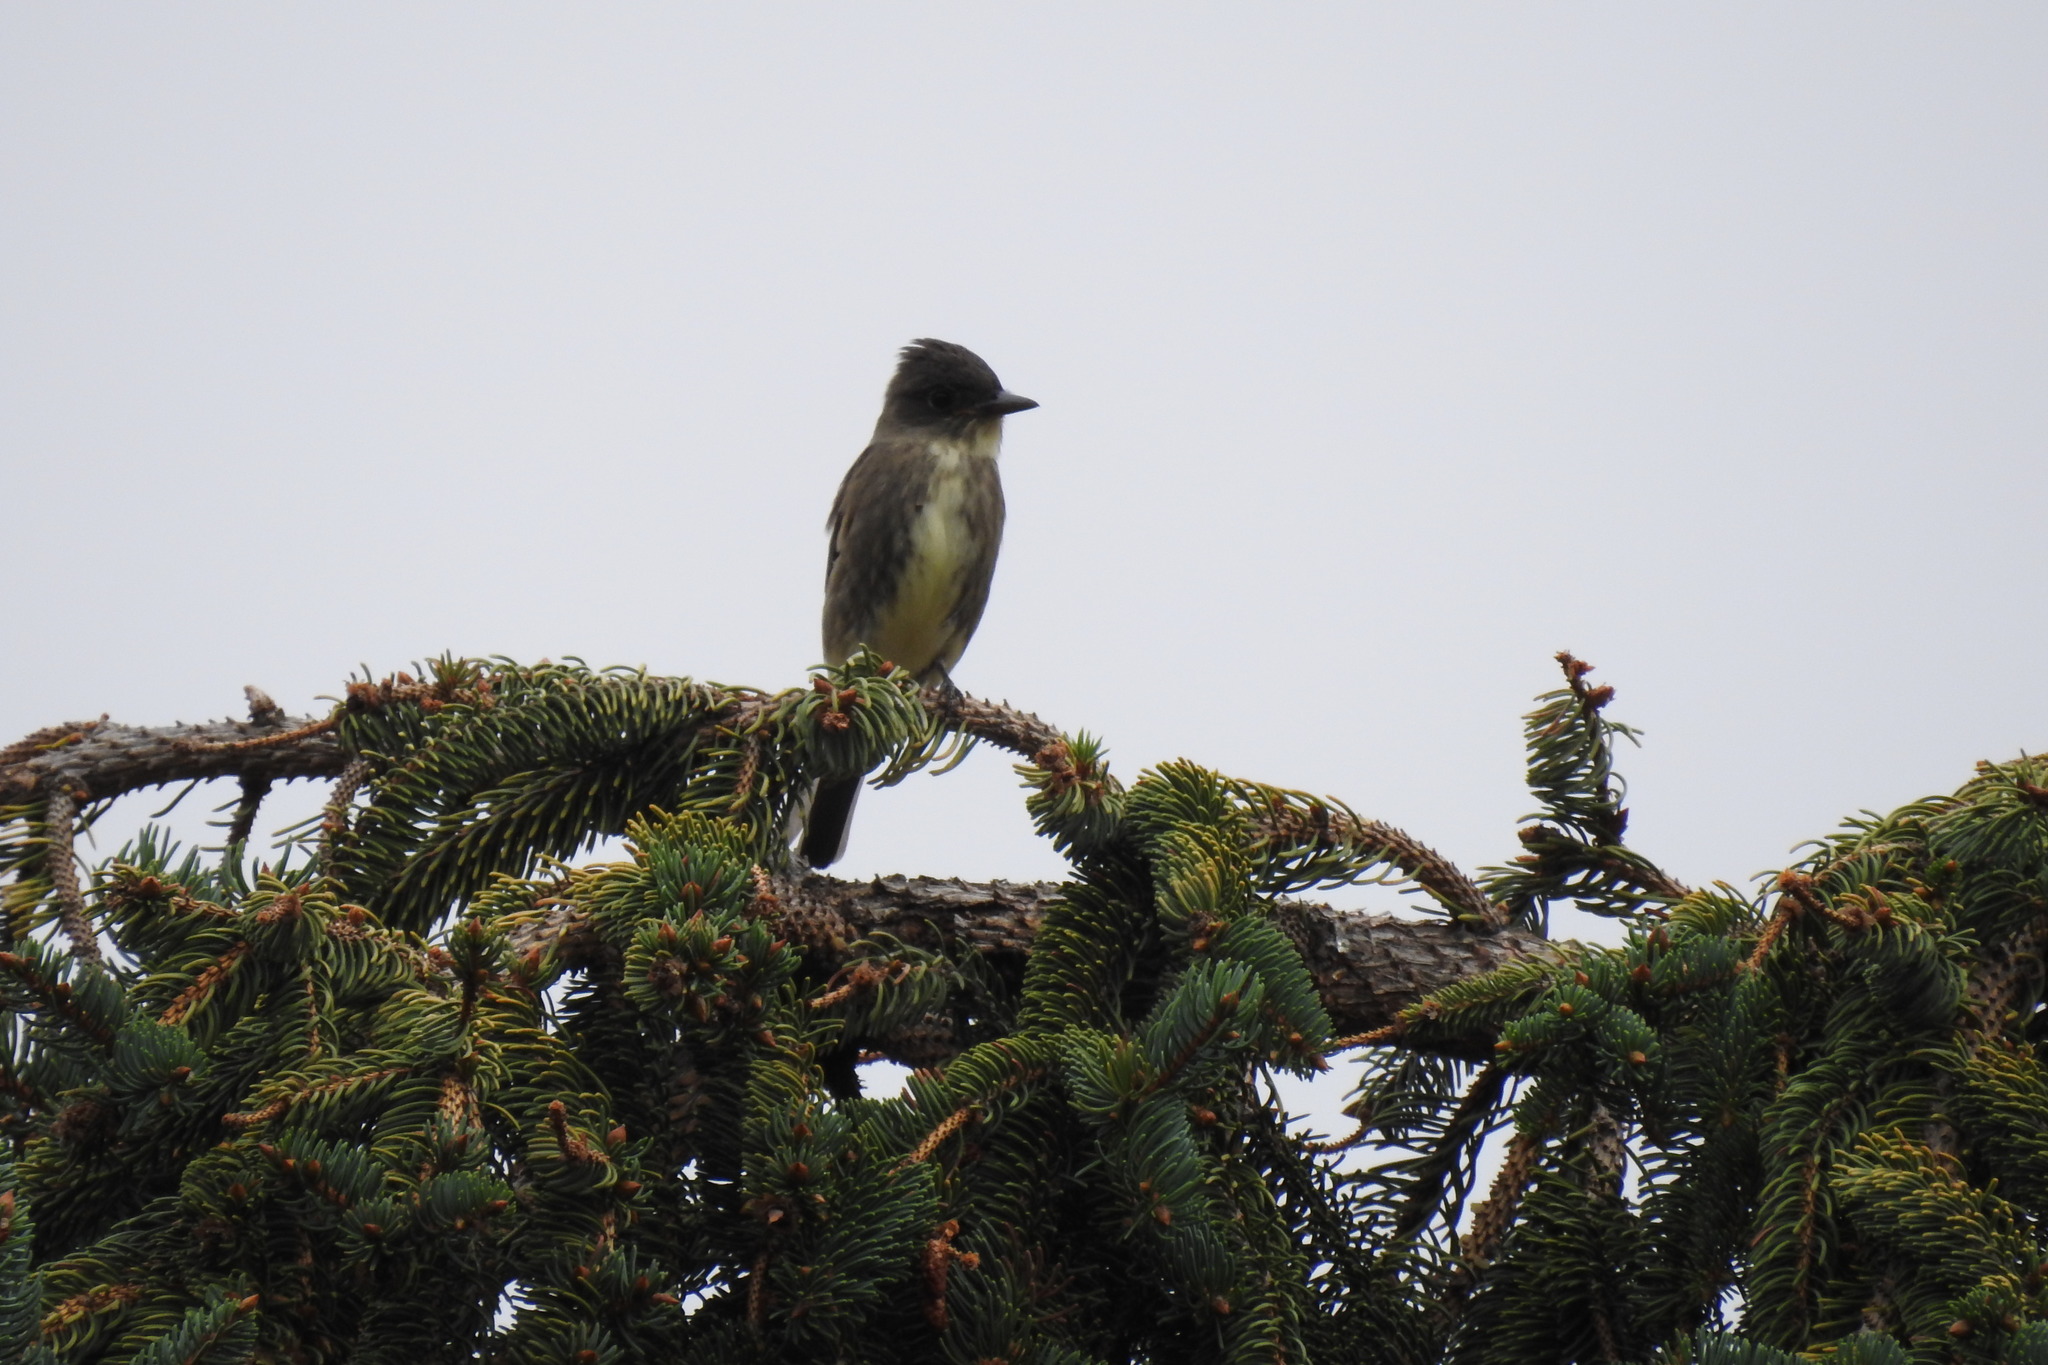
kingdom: Animalia
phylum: Chordata
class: Aves
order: Passeriformes
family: Tyrannidae
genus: Contopus
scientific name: Contopus cooperi
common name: Olive-sided flycatcher
